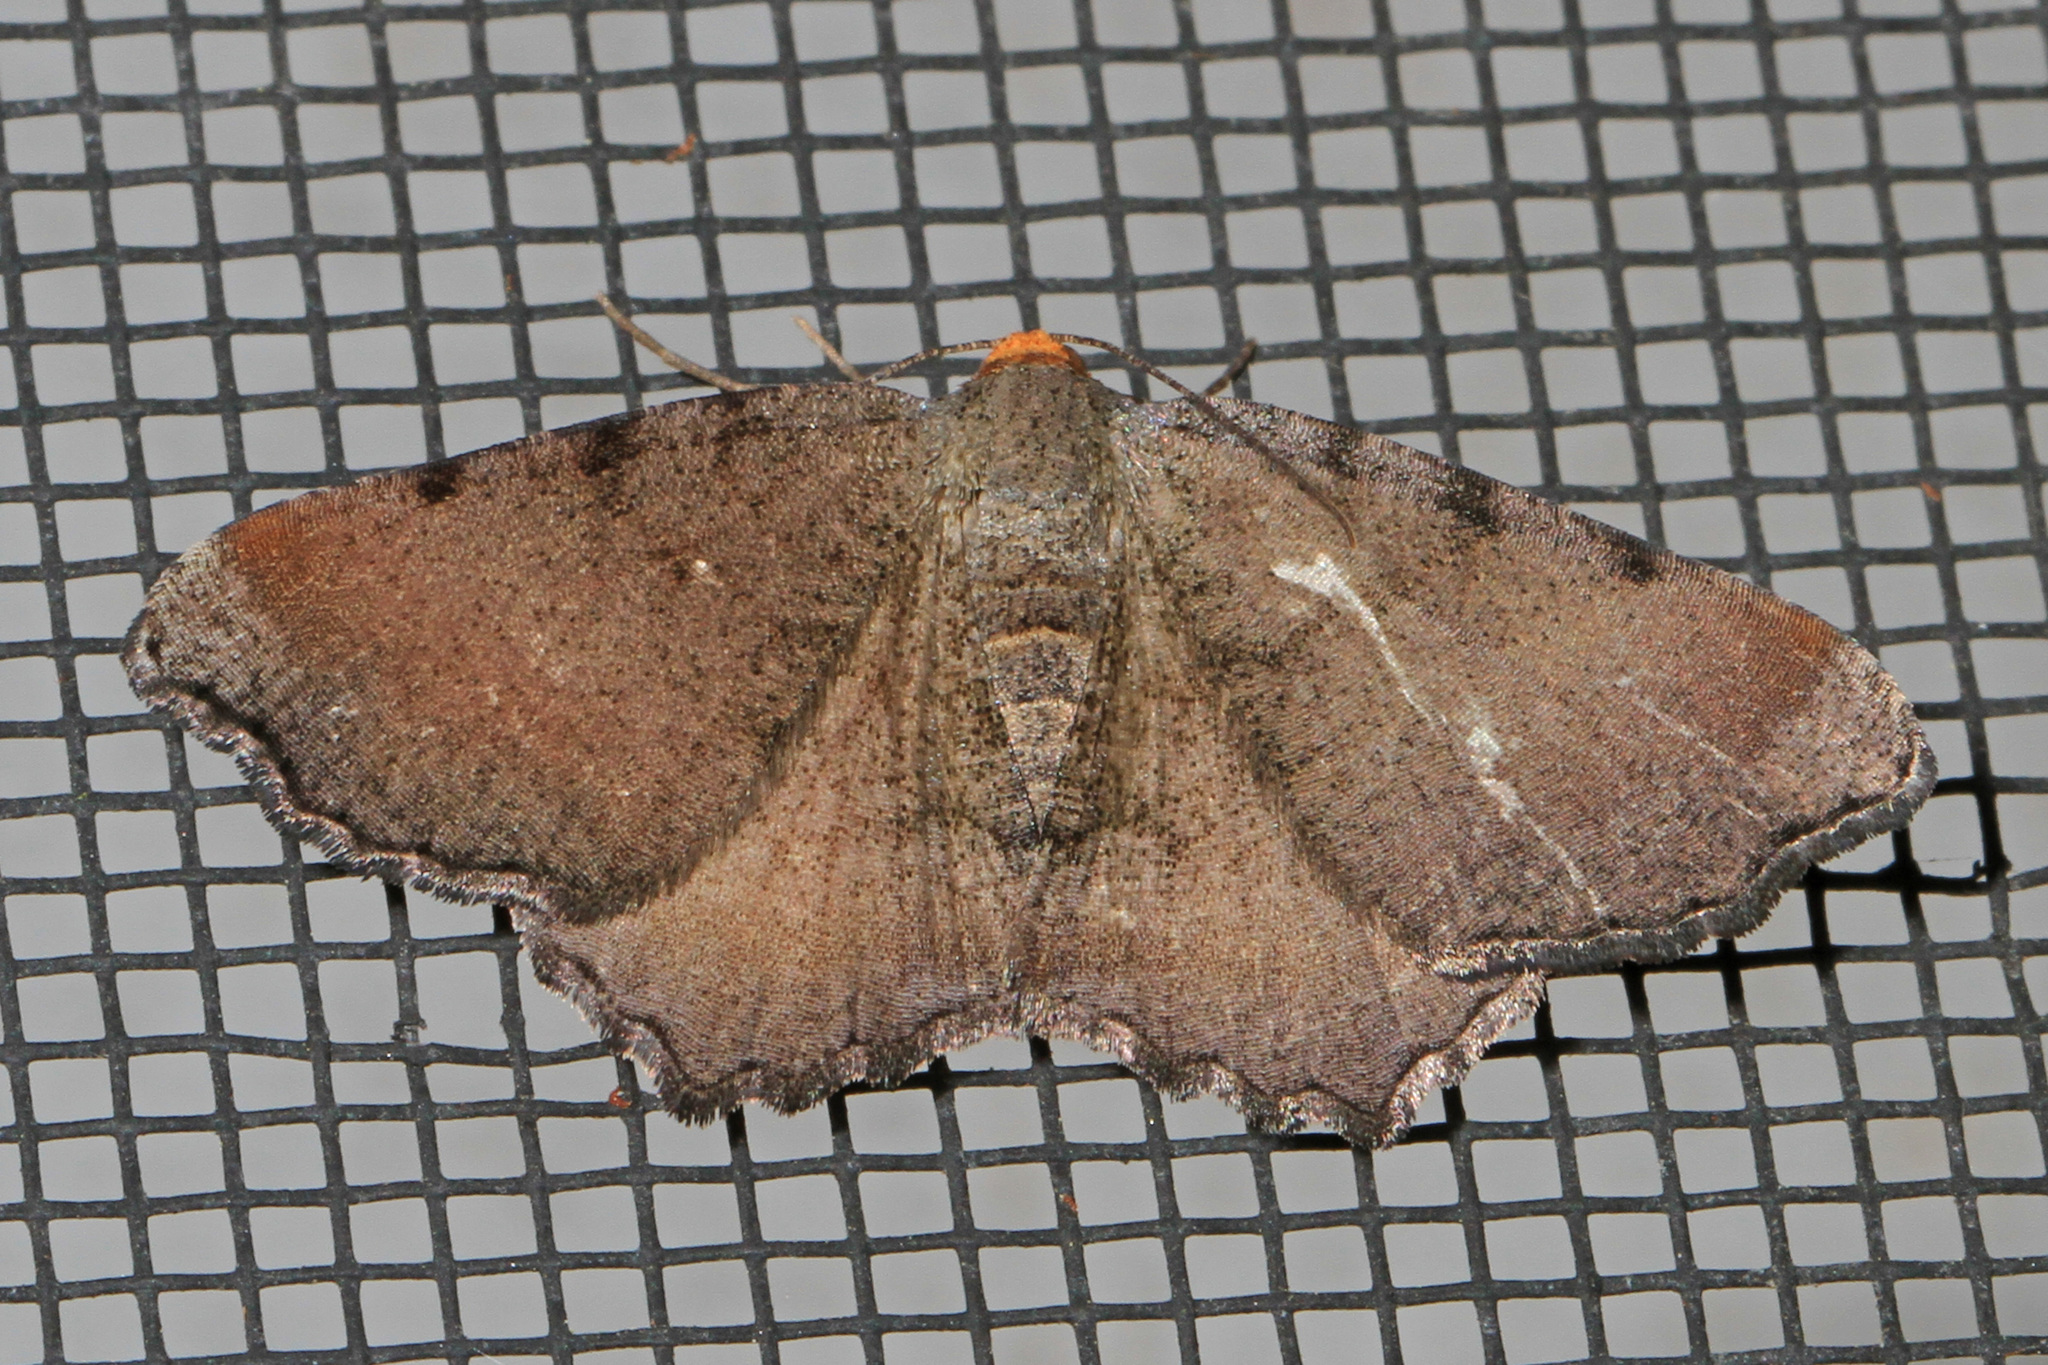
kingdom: Animalia
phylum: Arthropoda
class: Insecta
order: Lepidoptera
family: Geometridae
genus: Macaria
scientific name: Macaria minorata
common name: Minor angle moth
